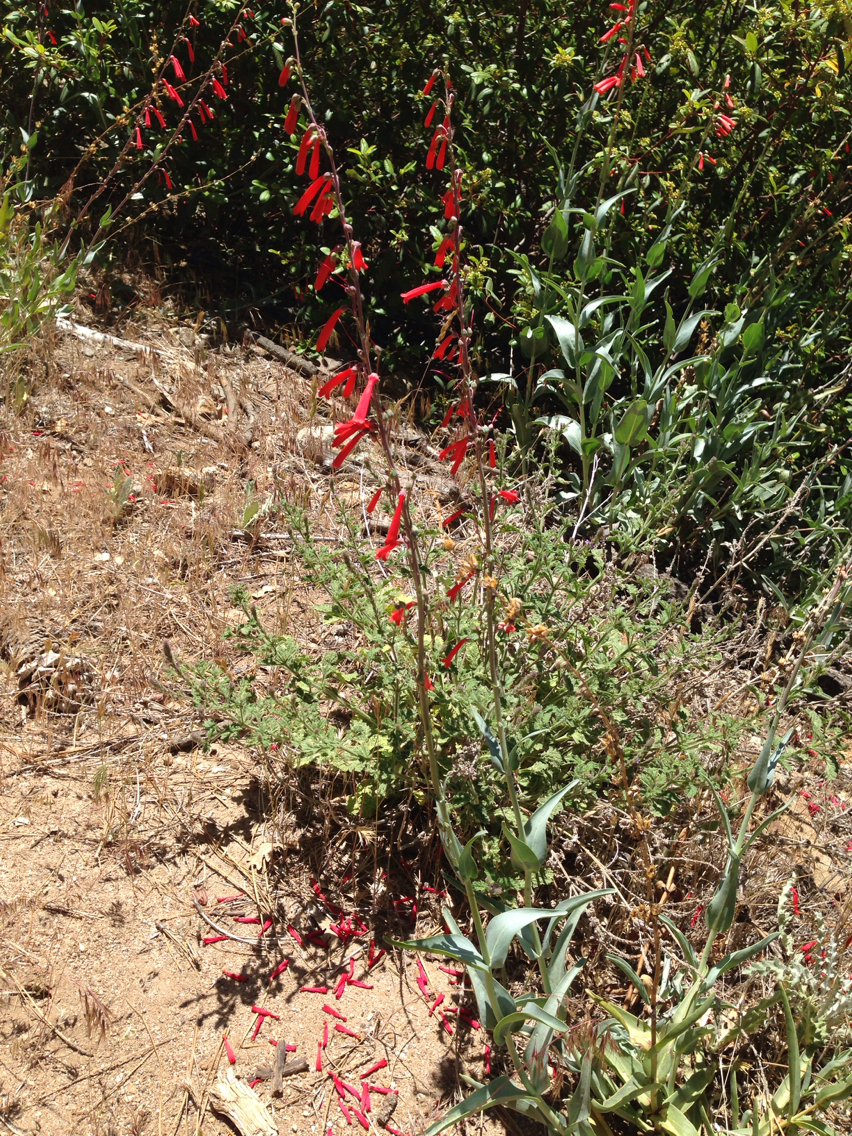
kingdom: Plantae
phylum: Tracheophyta
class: Magnoliopsida
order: Lamiales
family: Plantaginaceae
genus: Penstemon
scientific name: Penstemon centranthifolius
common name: Scarlet bugler
